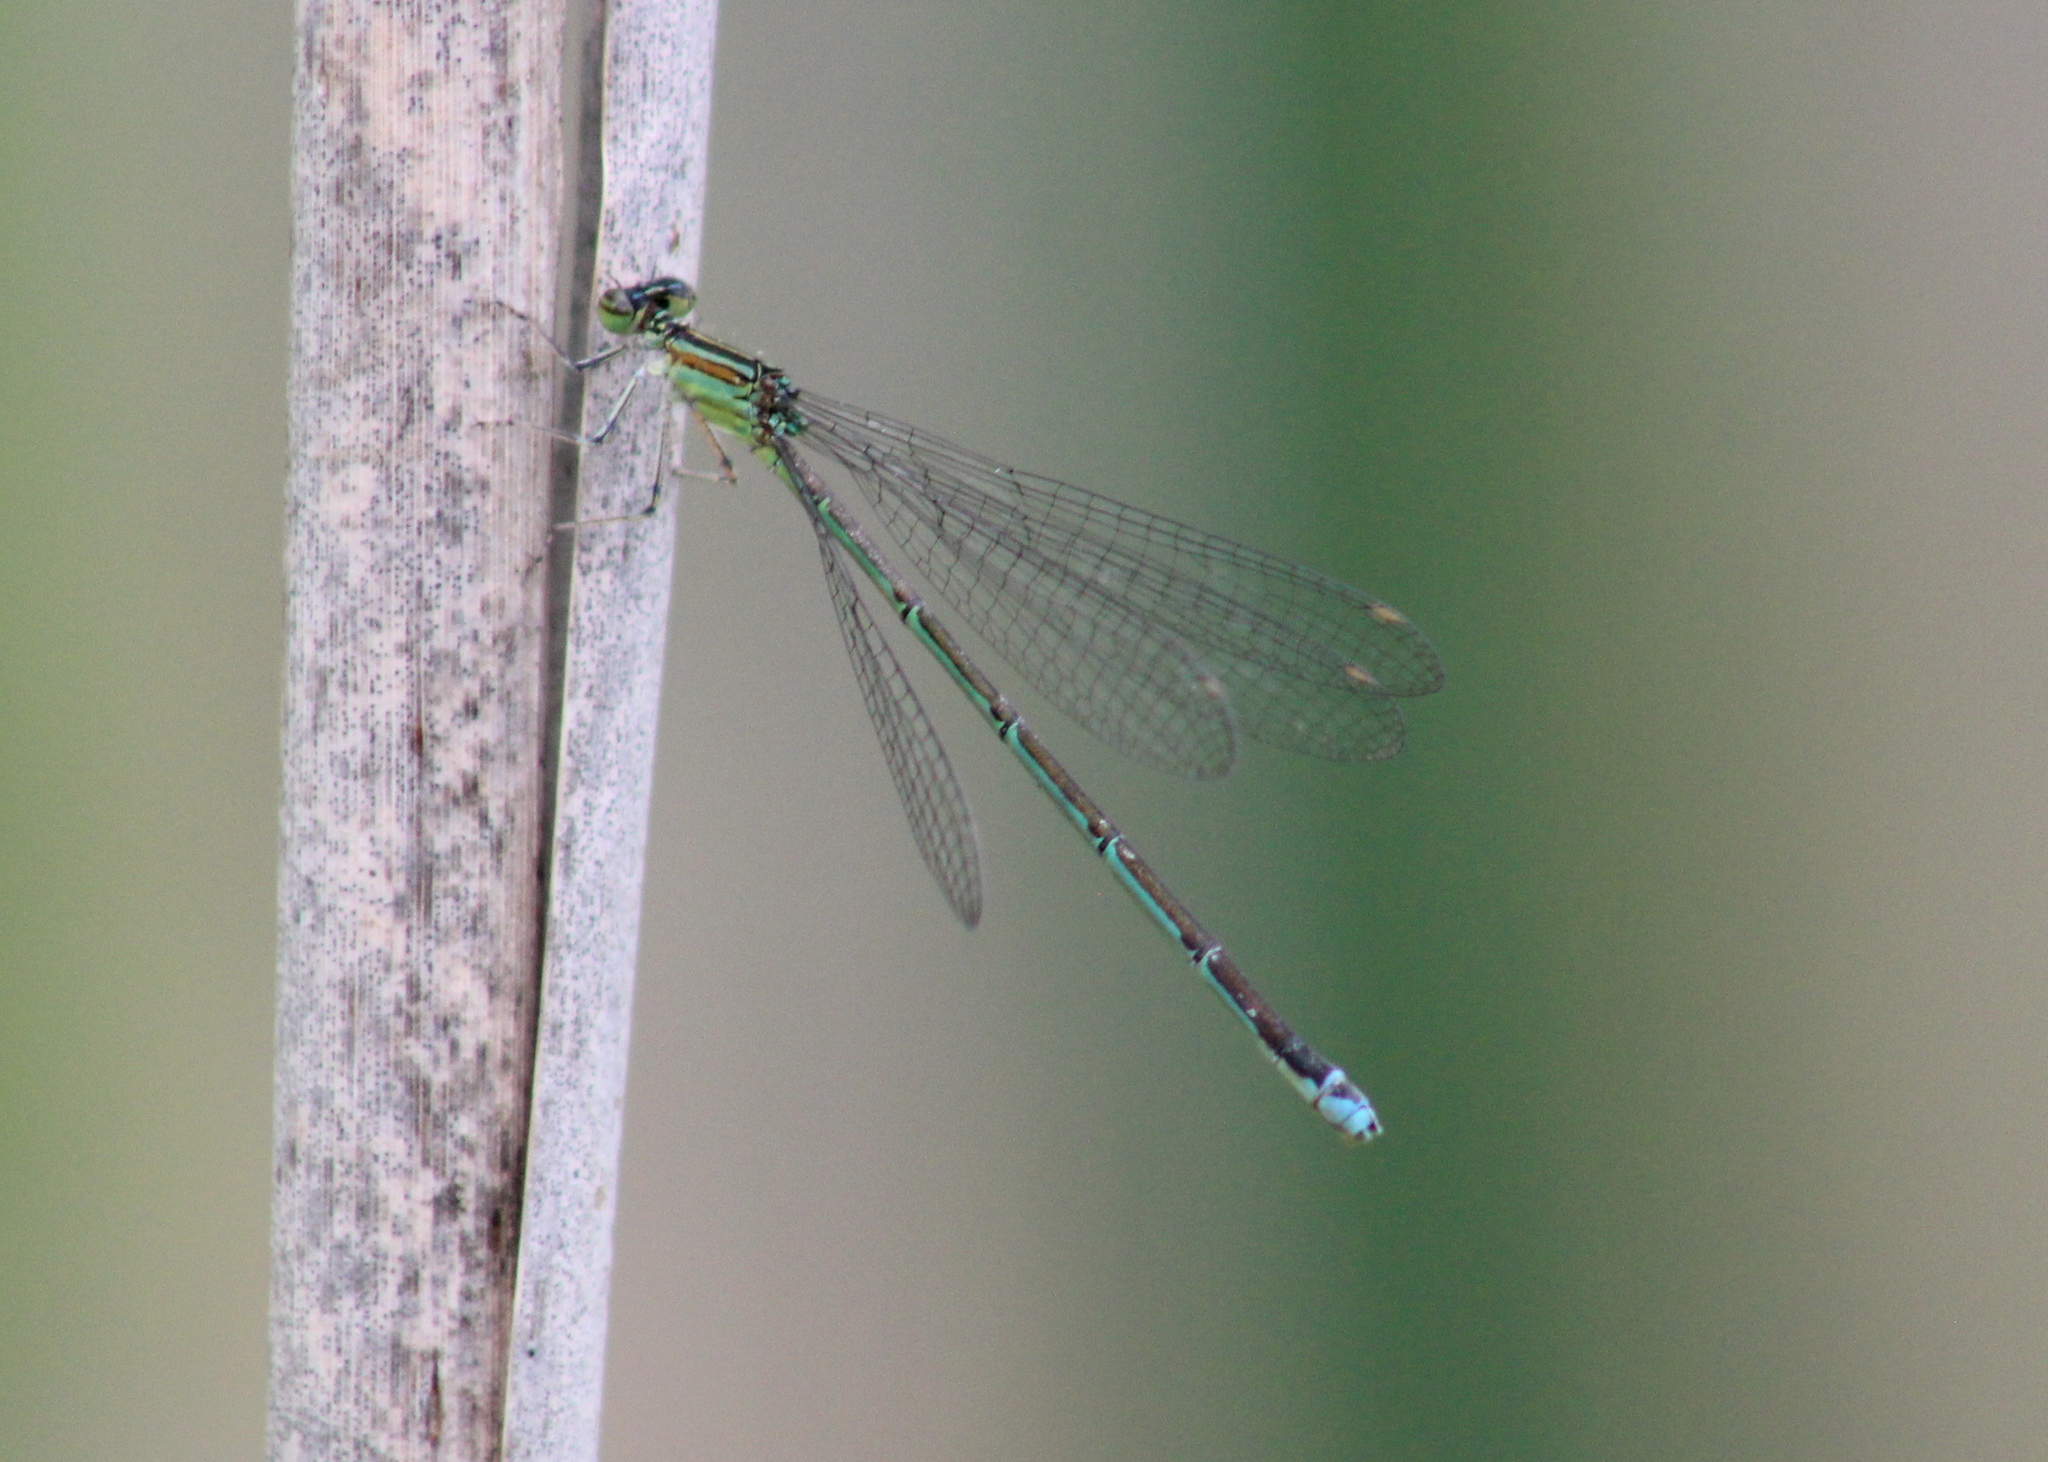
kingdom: Animalia
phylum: Arthropoda
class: Insecta
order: Odonata
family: Coenagrionidae
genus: Enallagma
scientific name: Enallagma exsulans
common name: Stream bluet
